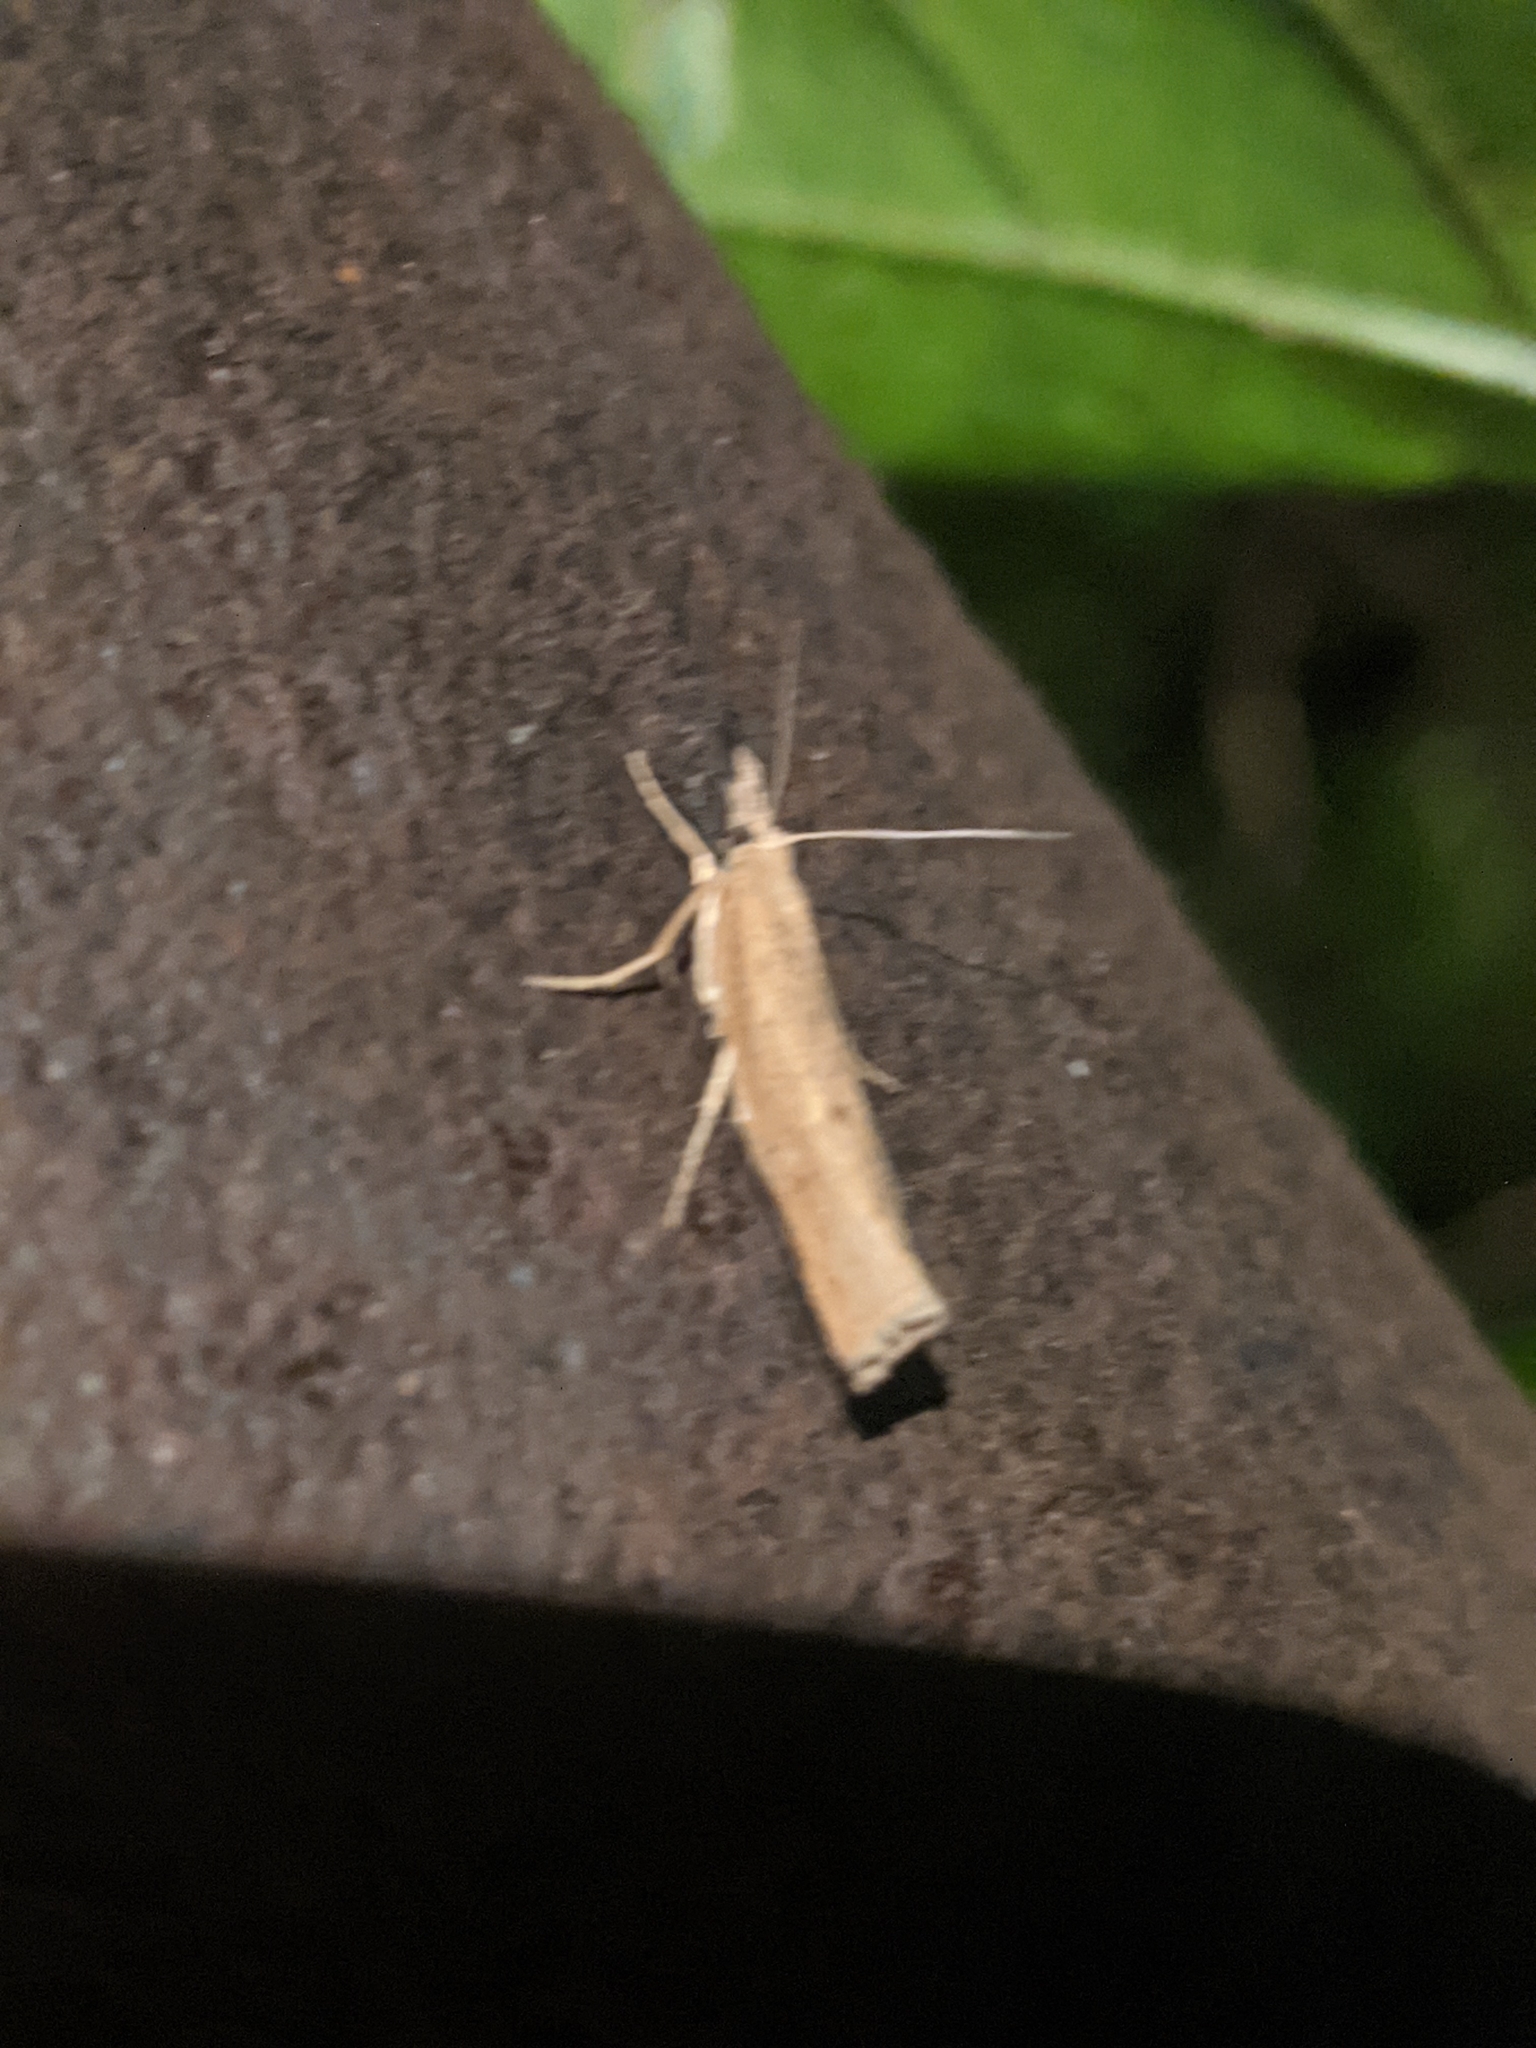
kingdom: Animalia
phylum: Arthropoda
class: Insecta
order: Lepidoptera
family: Crambidae
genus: Pediasia
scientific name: Pediasia contaminella
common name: Waste grass-veneer
